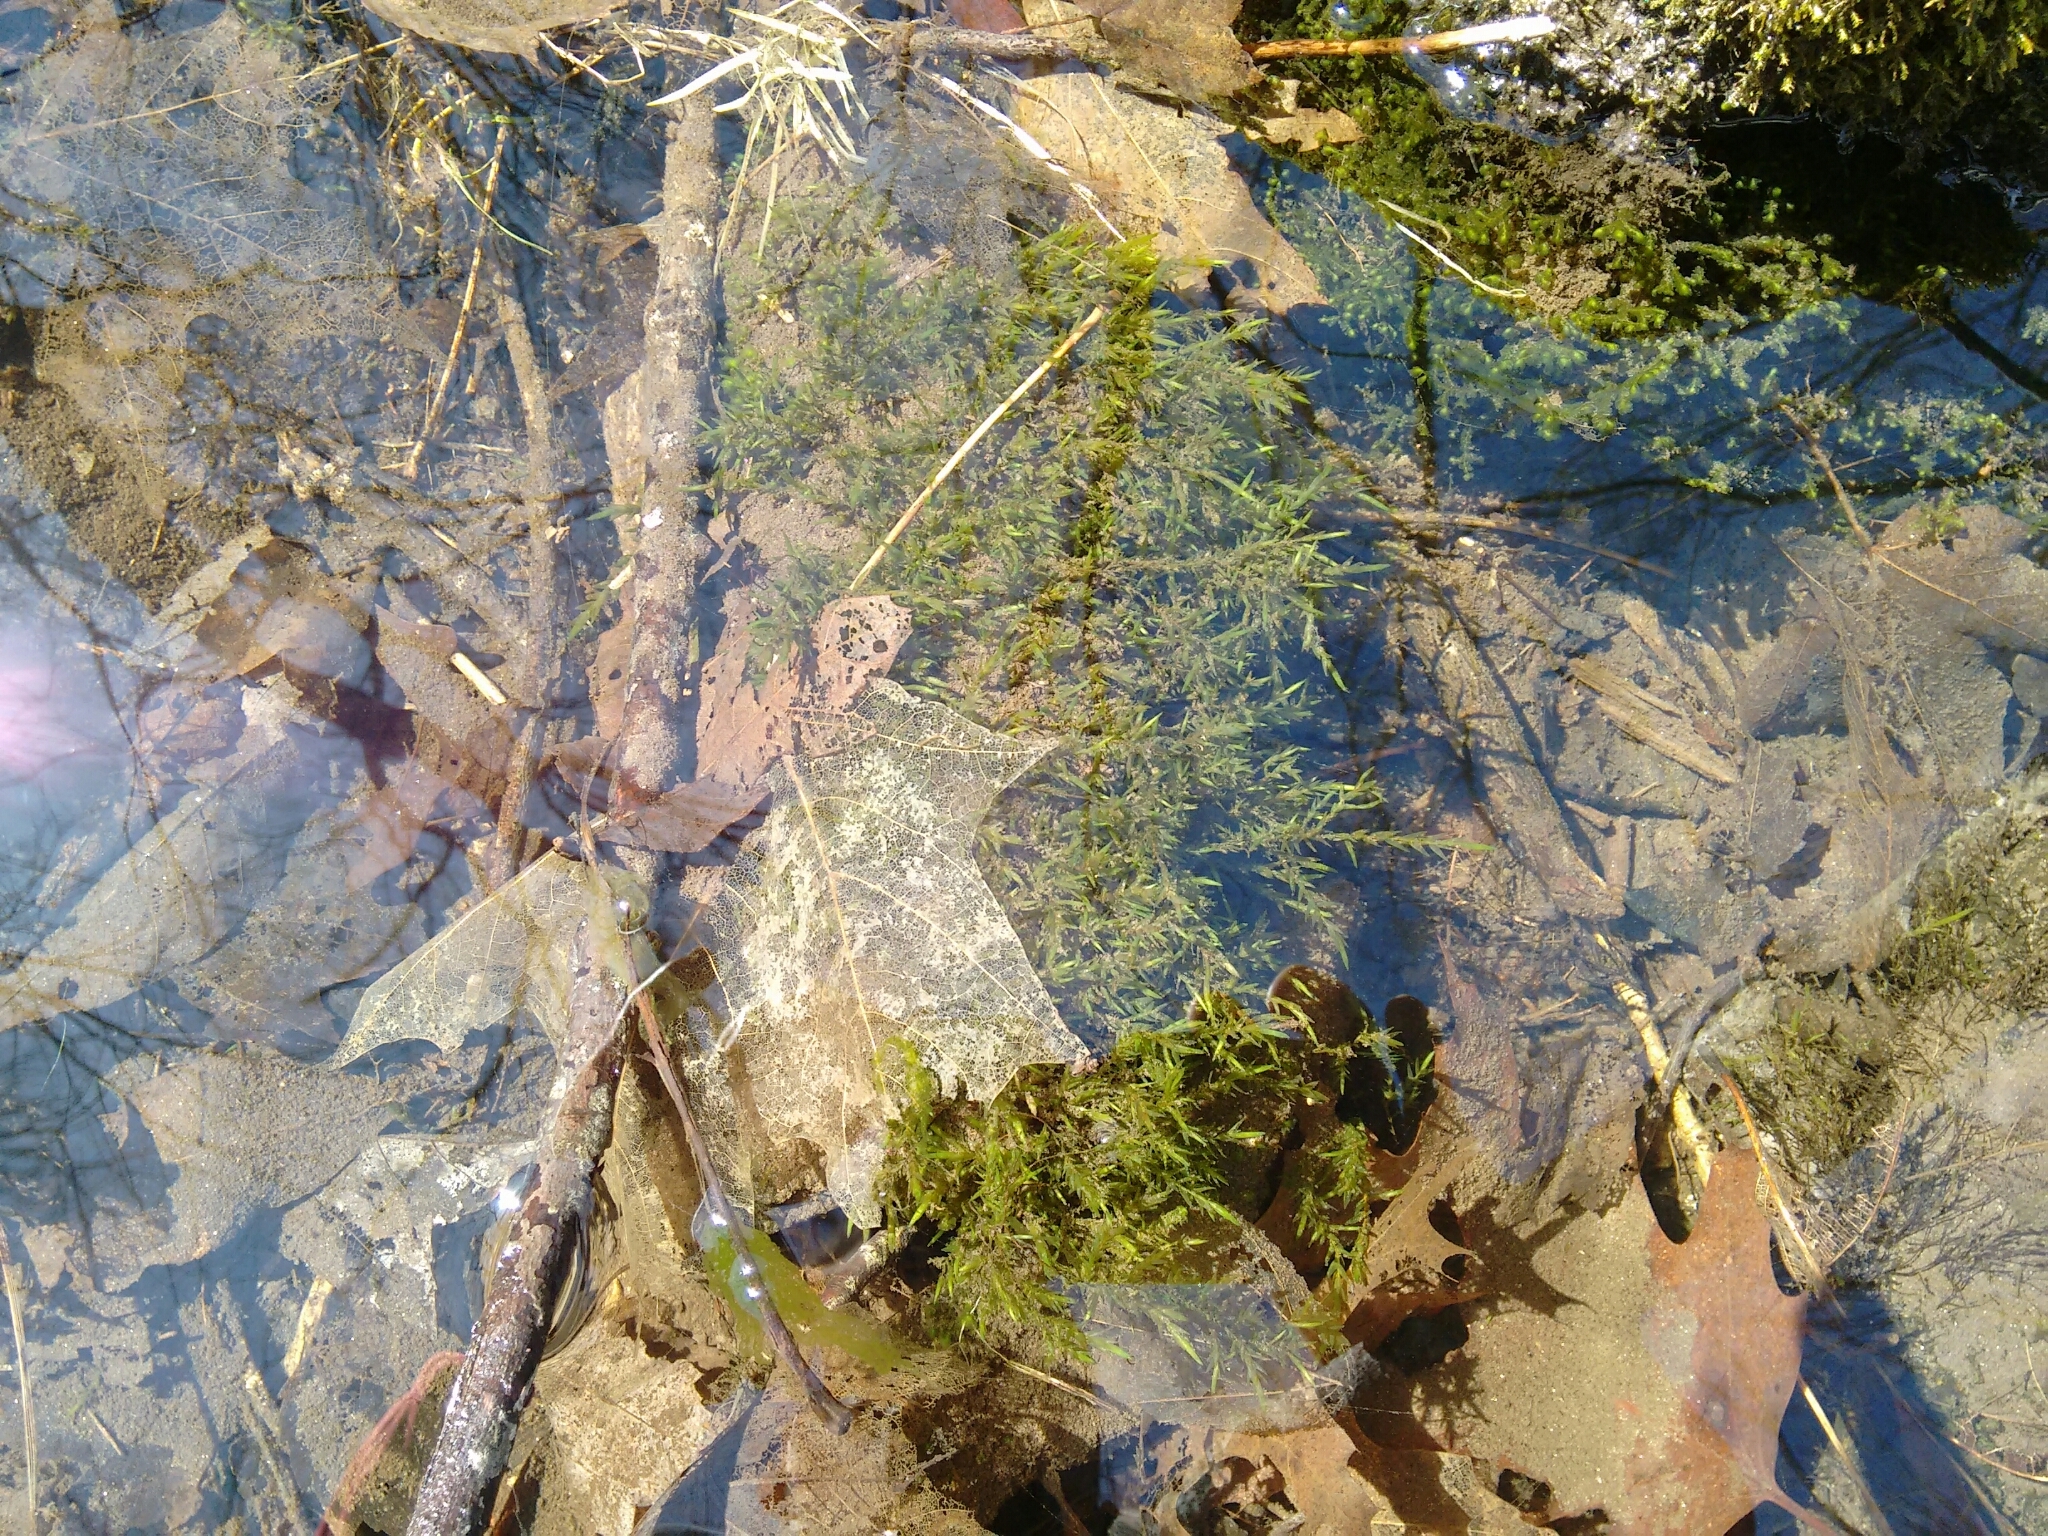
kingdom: Plantae
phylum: Bryophyta
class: Bryopsida
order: Hypnales
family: Fontinalaceae
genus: Fontinalis
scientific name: Fontinalis novae-angliae
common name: New england water moss
